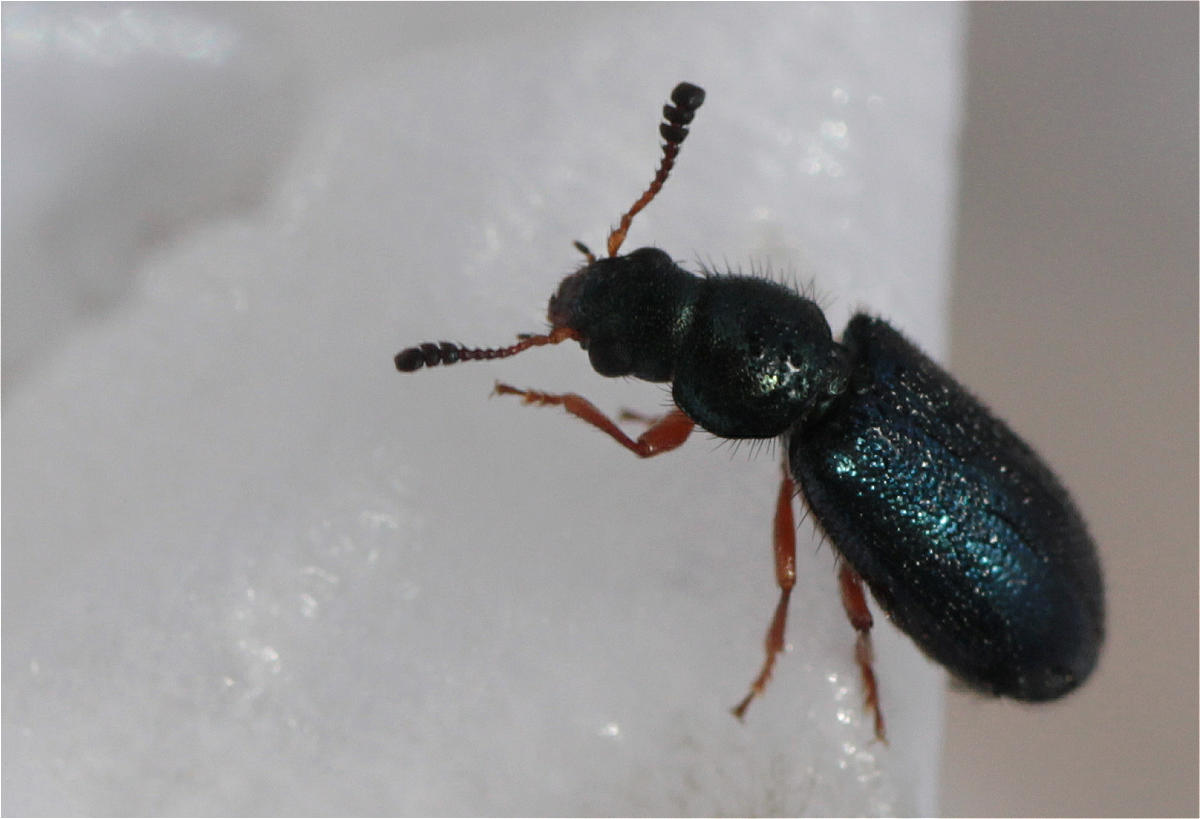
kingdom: Animalia
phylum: Arthropoda
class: Insecta
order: Coleoptera
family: Cleridae
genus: Necrobia
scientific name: Necrobia rufipes
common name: Red-legged ham beetle
